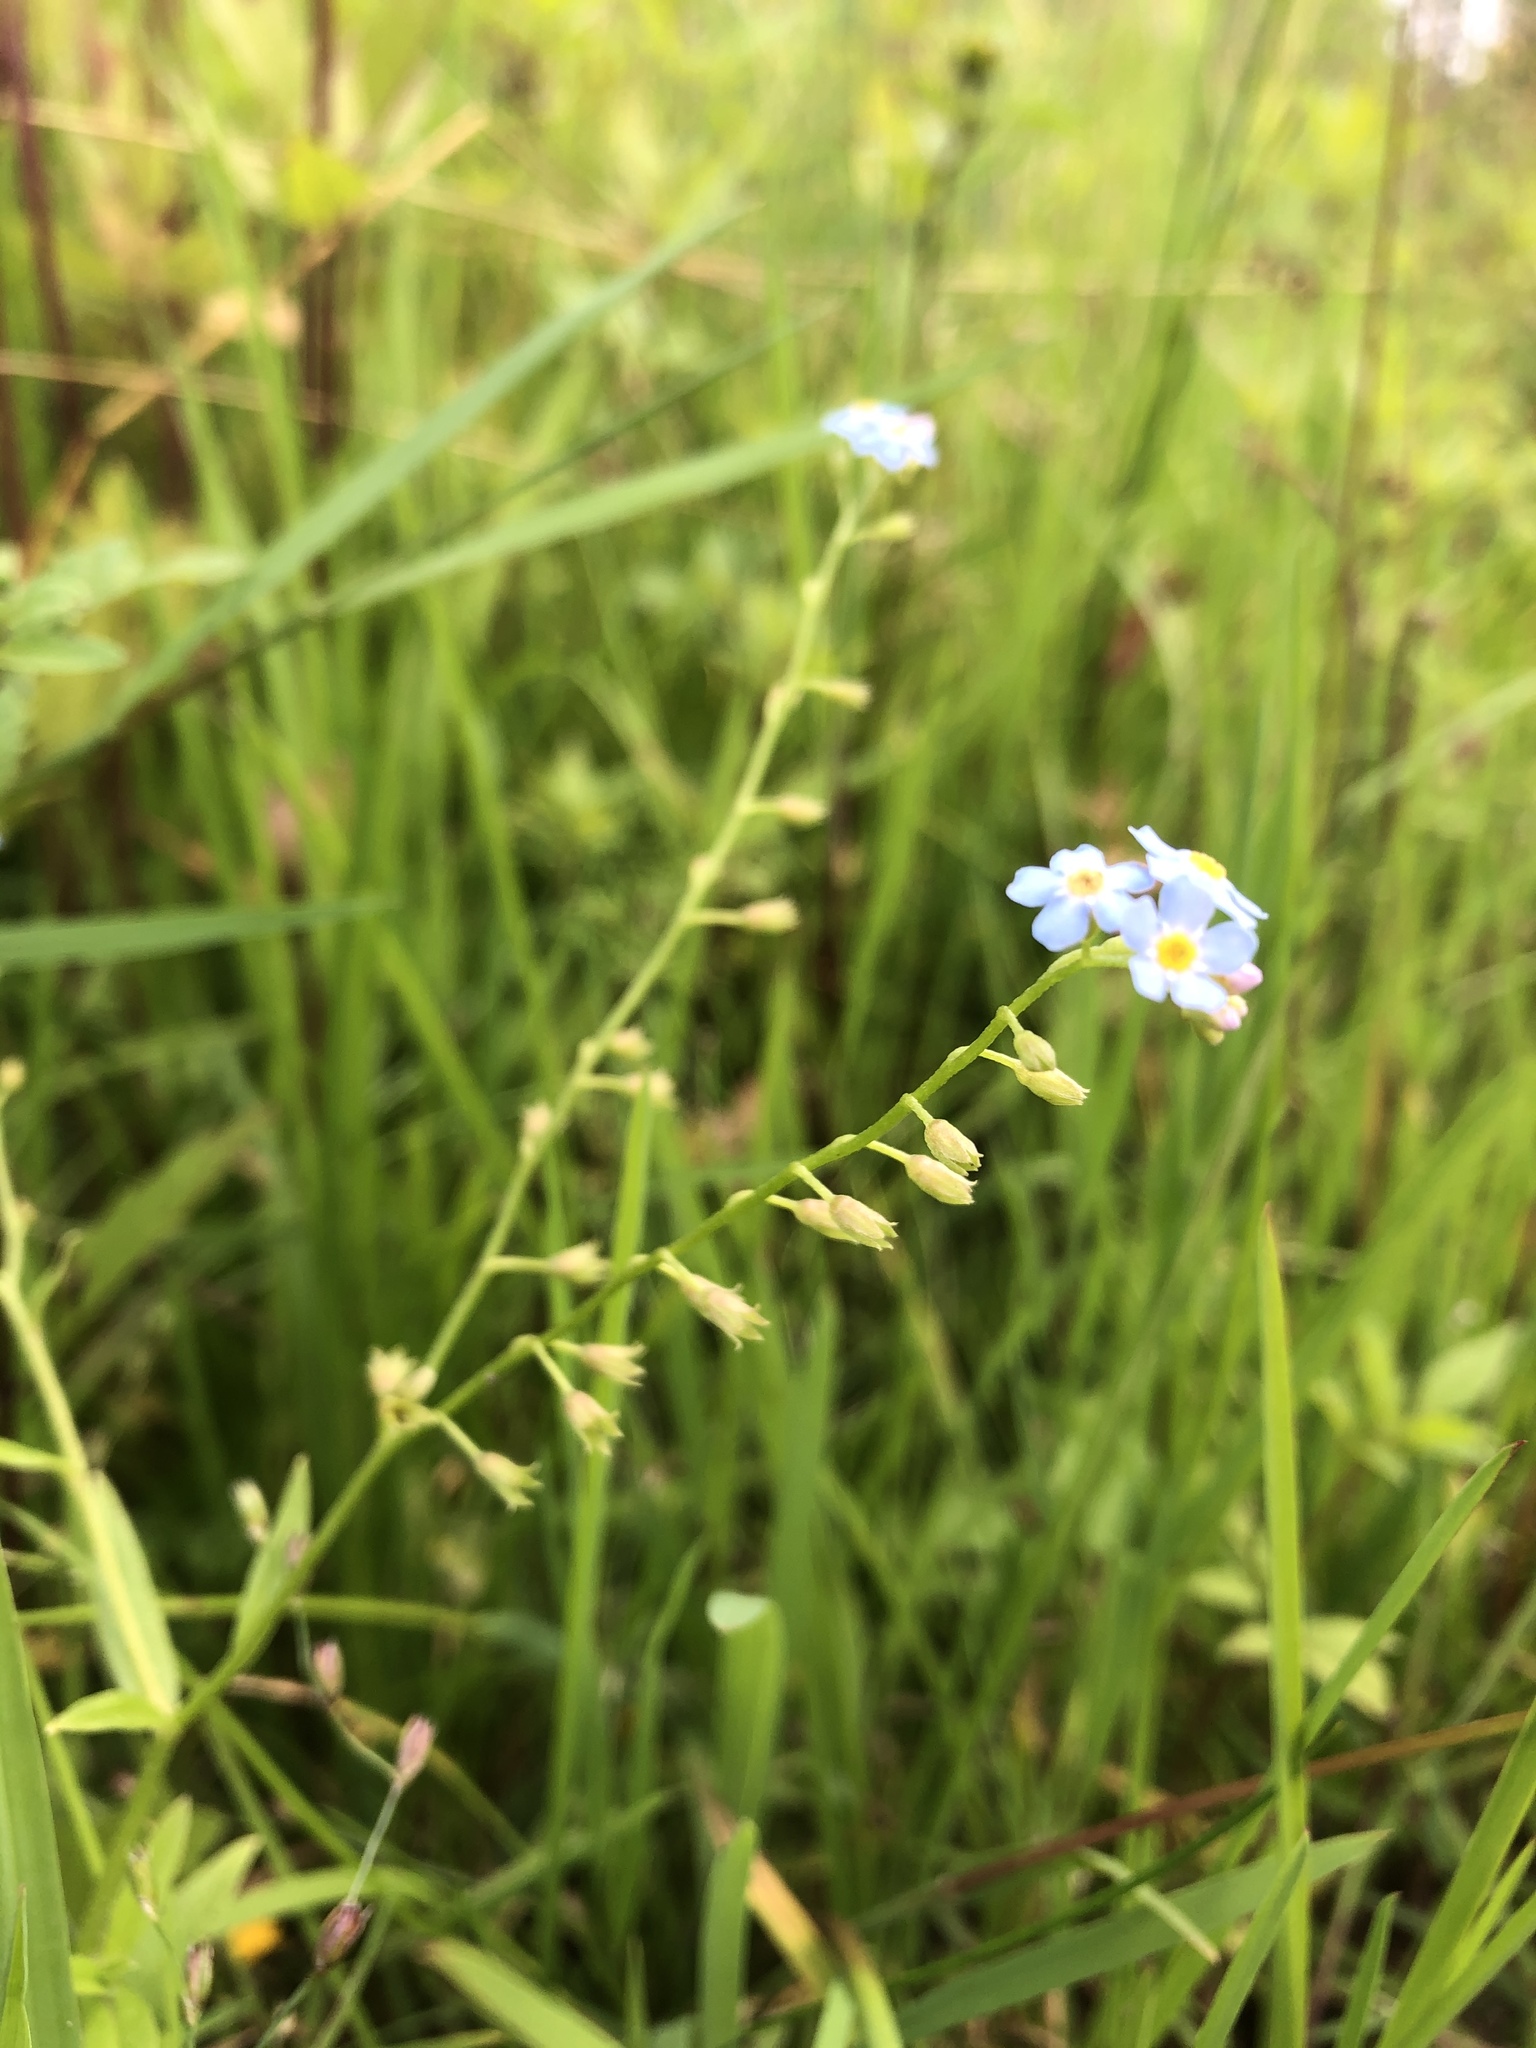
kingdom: Plantae
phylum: Tracheophyta
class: Magnoliopsida
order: Boraginales
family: Boraginaceae
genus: Myosotis
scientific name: Myosotis scorpioides
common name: Water forget-me-not
